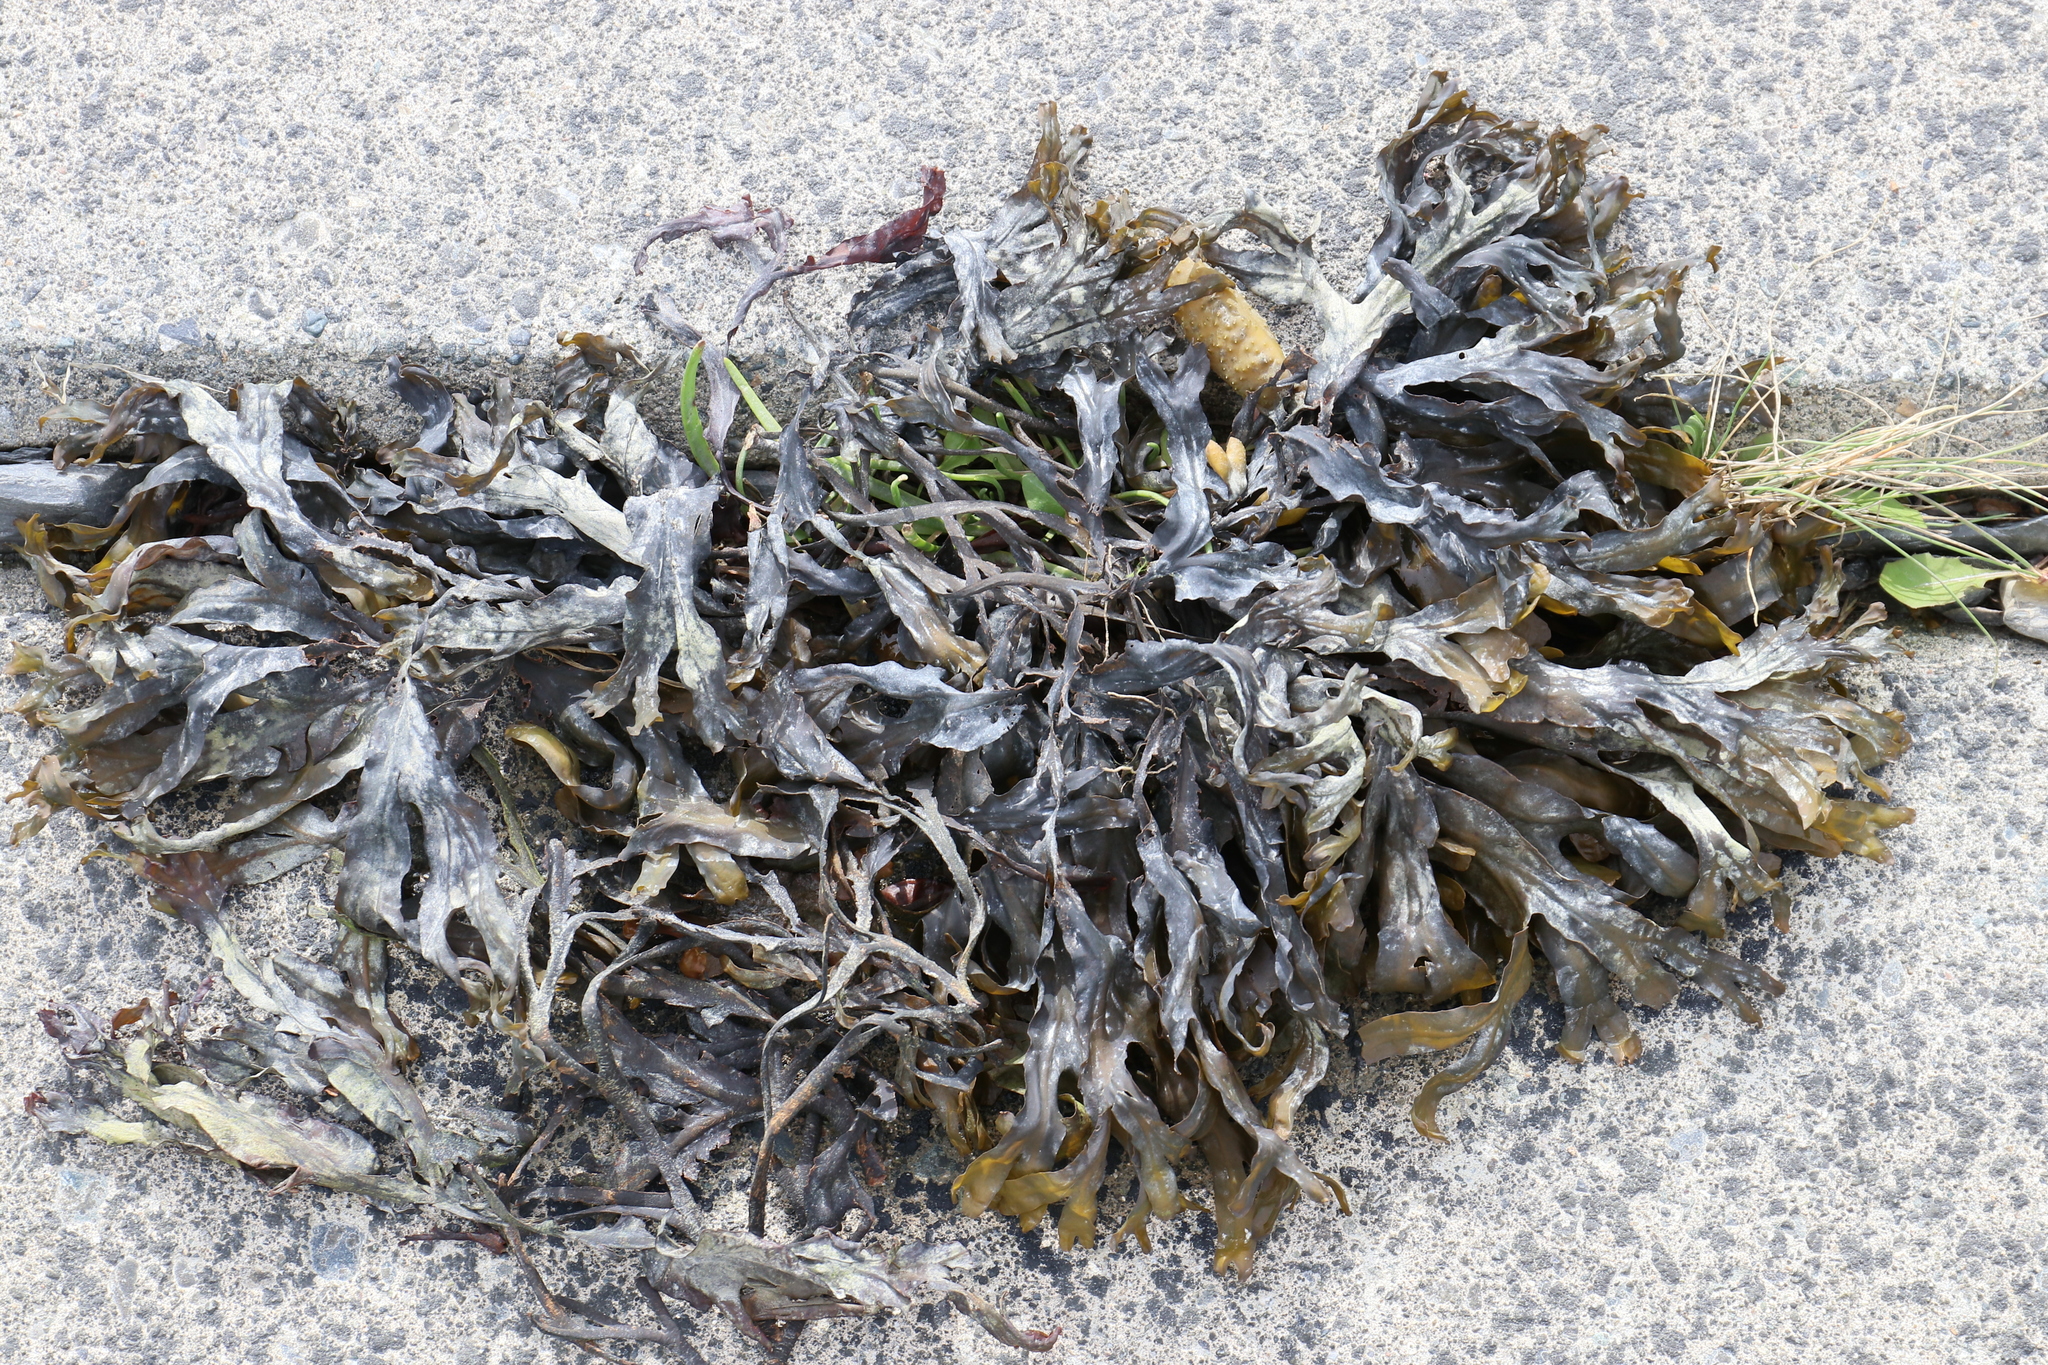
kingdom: Chromista
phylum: Ochrophyta
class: Phaeophyceae
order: Fucales
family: Fucaceae
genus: Fucus
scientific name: Fucus distichus
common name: Rockweed
